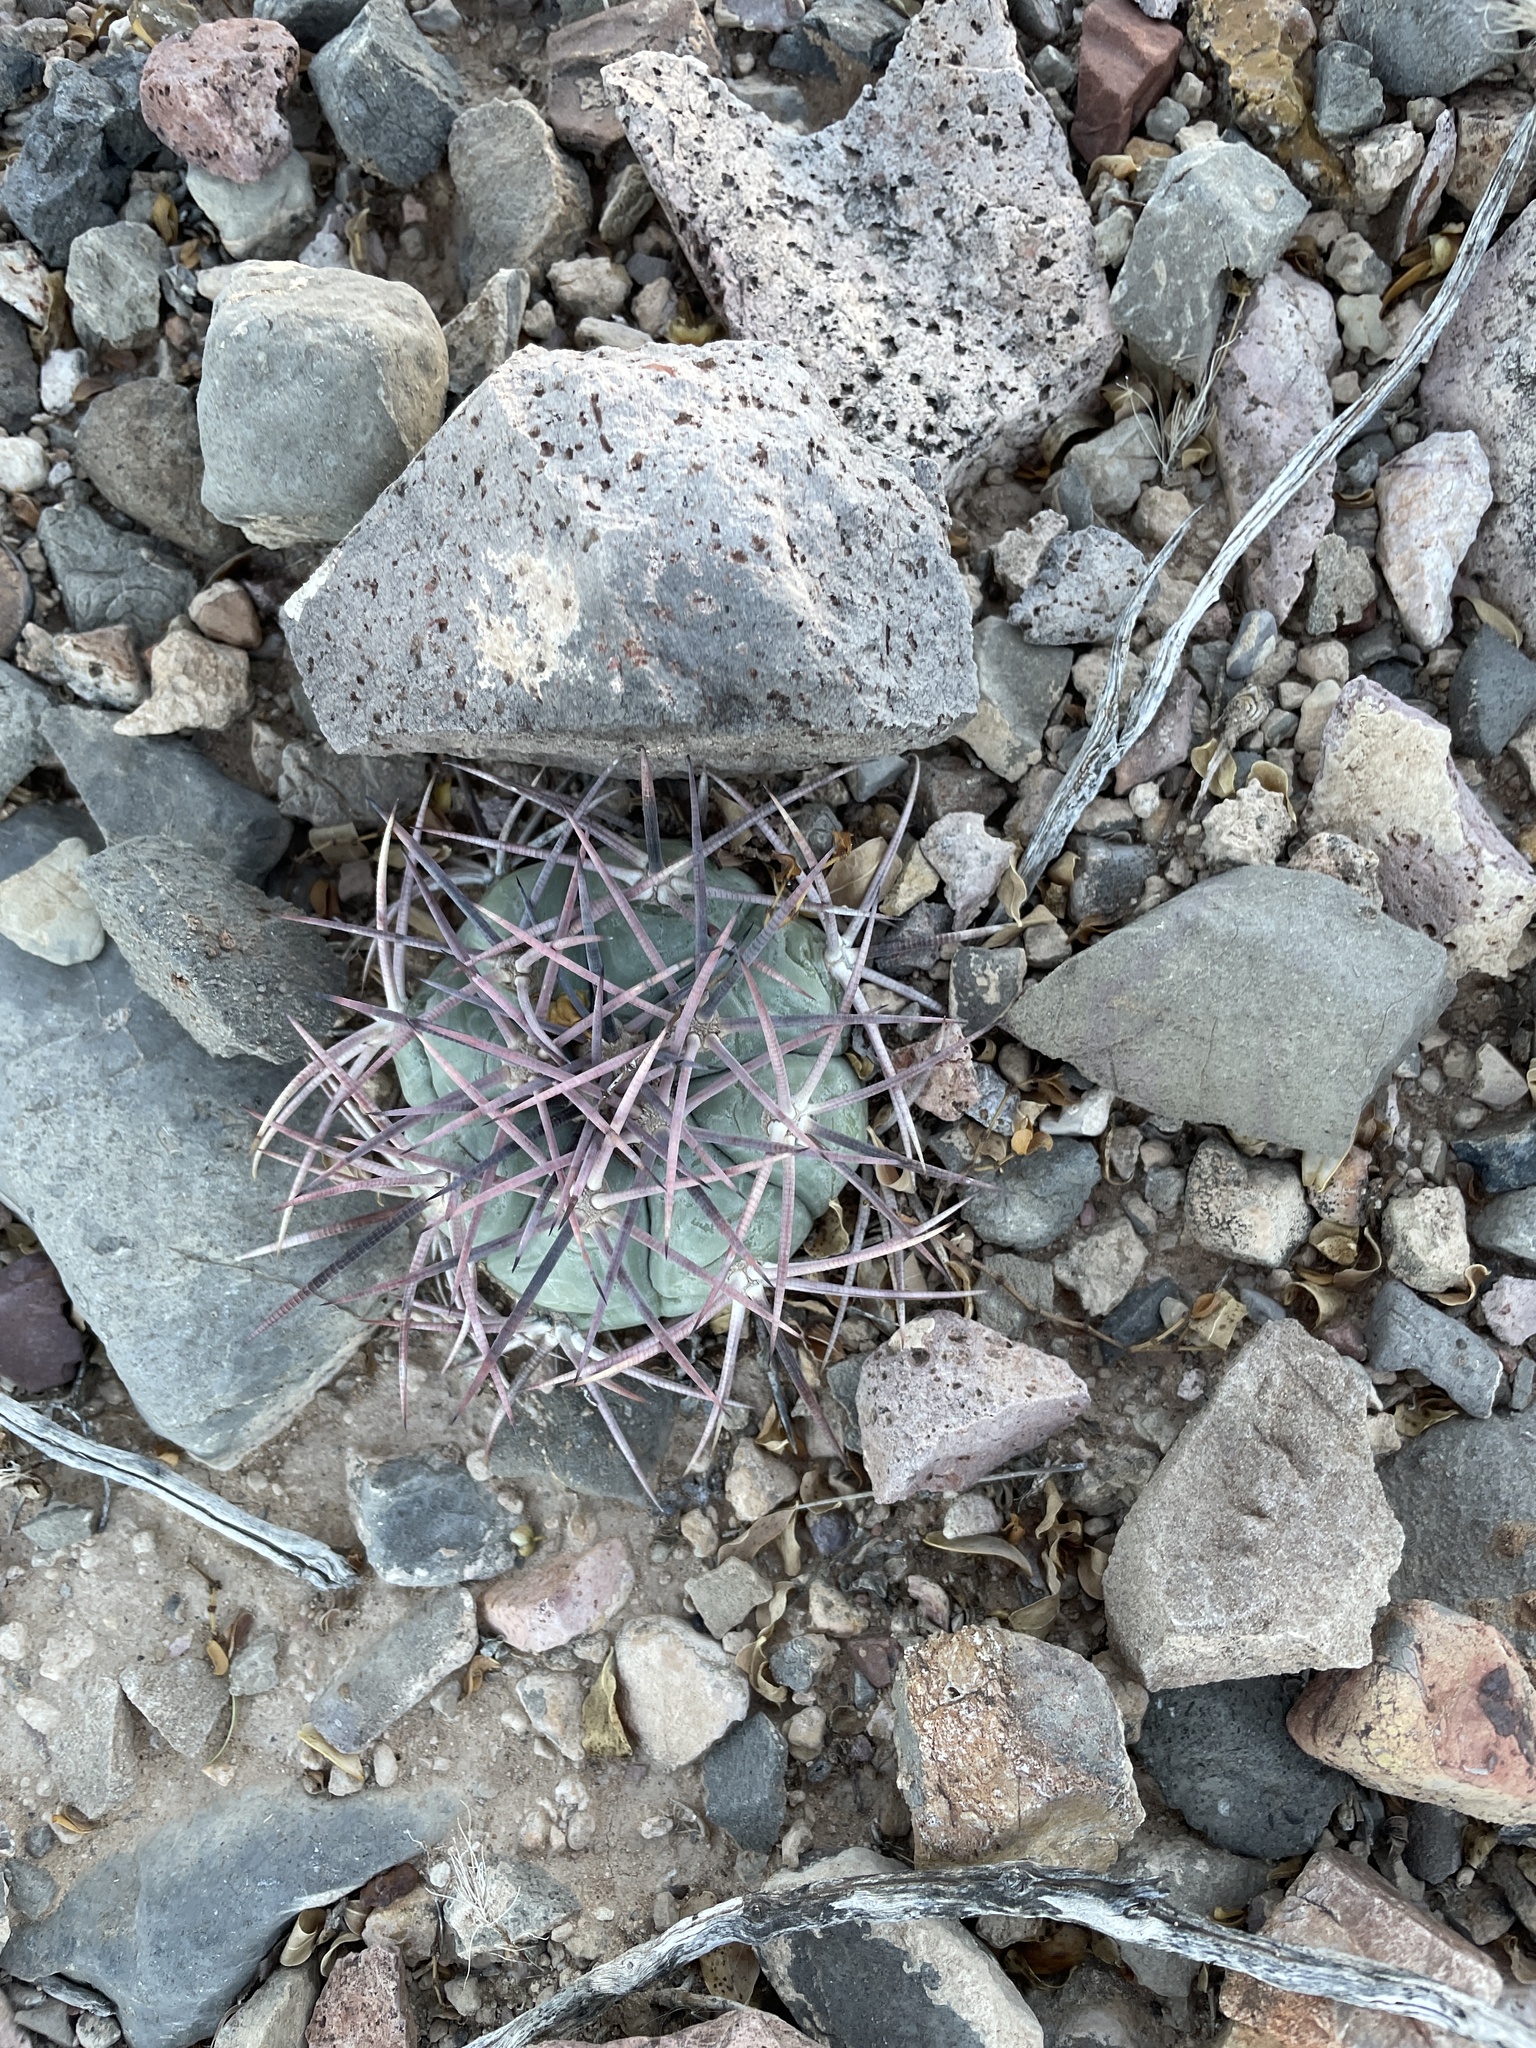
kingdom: Plantae
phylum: Tracheophyta
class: Magnoliopsida
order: Caryophyllales
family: Cactaceae
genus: Echinocactus
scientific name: Echinocactus horizonthalonius
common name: Devilshead
